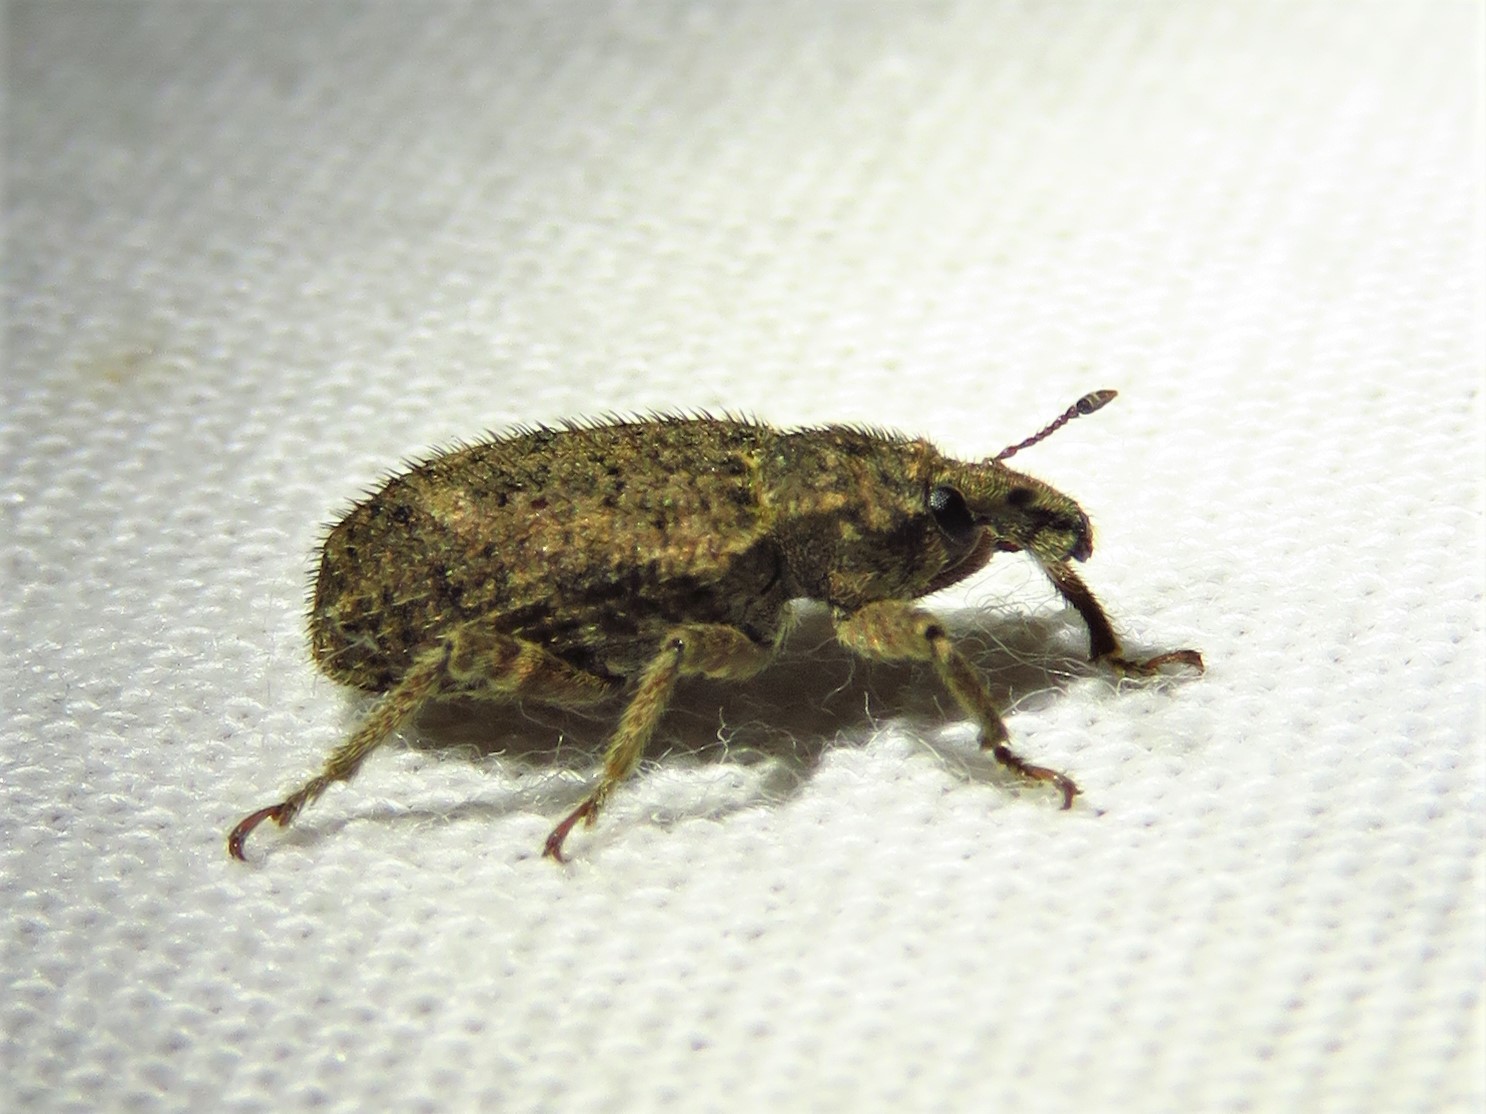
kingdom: Animalia
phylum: Arthropoda
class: Insecta
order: Coleoptera
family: Curculionidae
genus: Listroderes
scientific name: Listroderes difficilis
